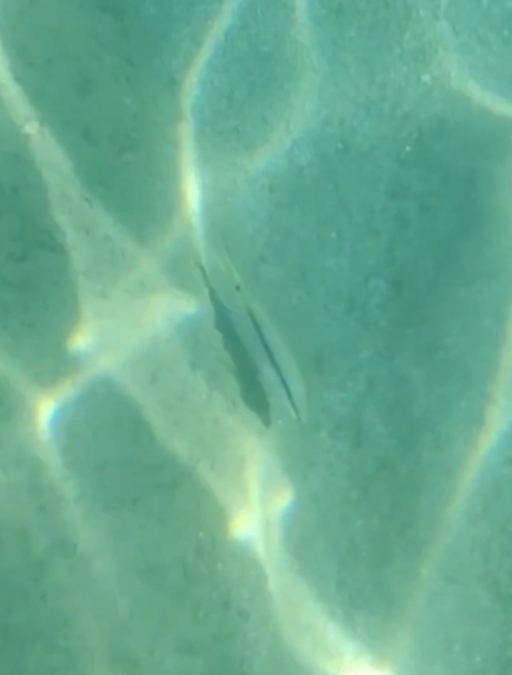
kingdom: Animalia
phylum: Chordata
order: Perciformes
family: Mullidae
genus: Parupeneus
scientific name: Parupeneus forsskali
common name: Red sea goatfish
